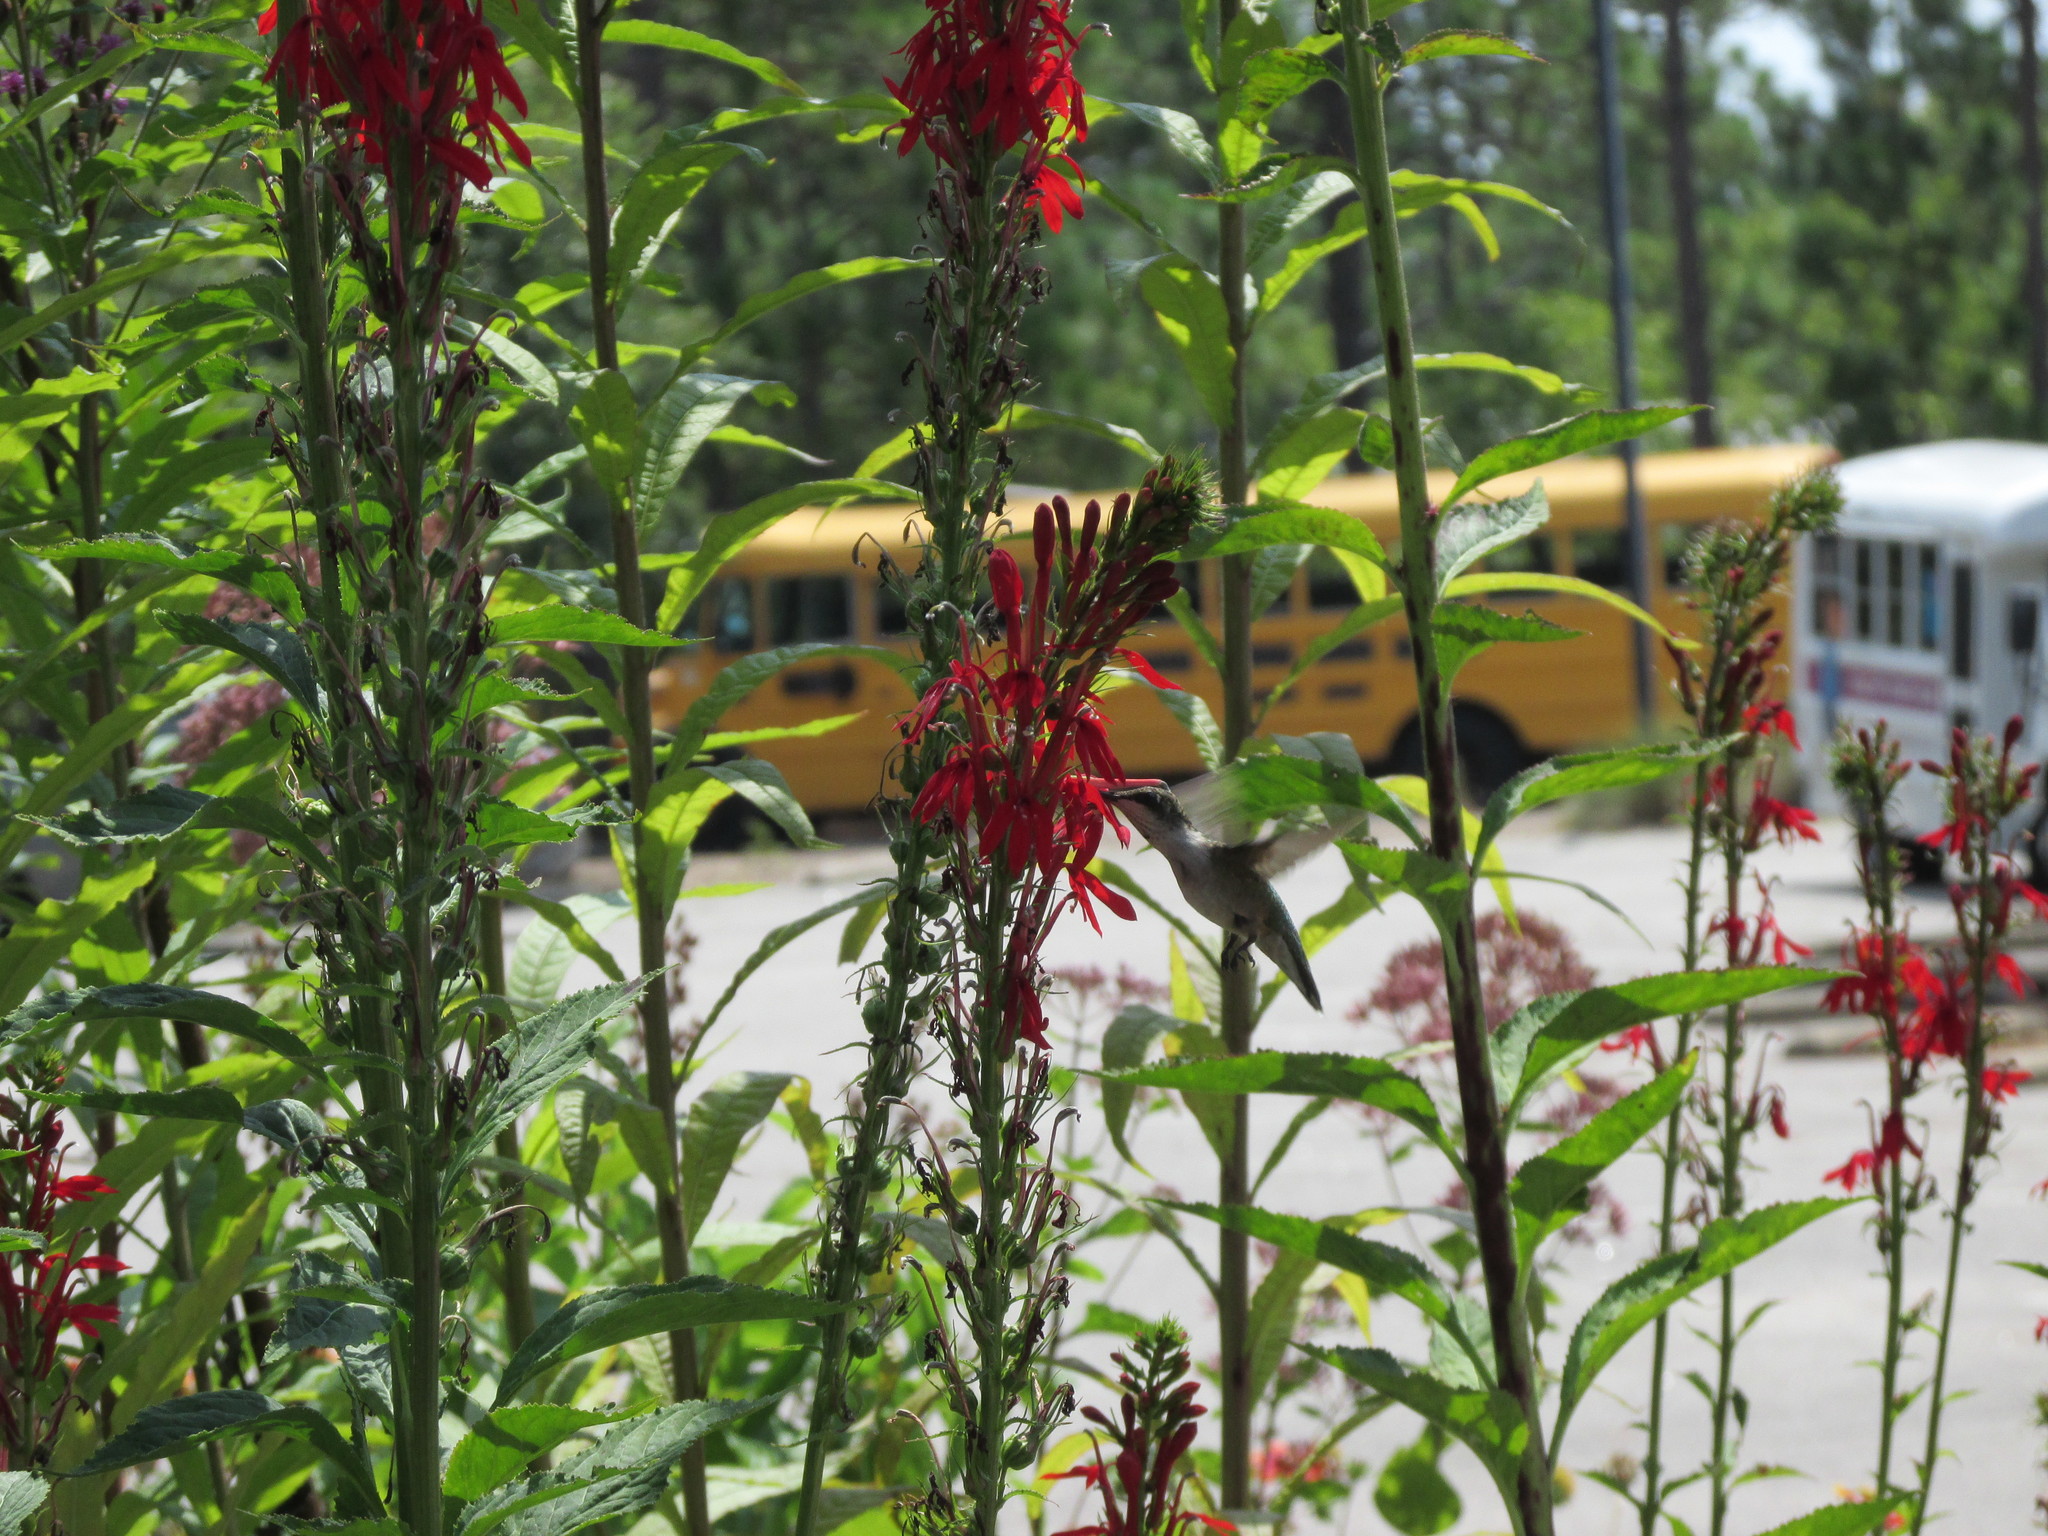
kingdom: Animalia
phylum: Chordata
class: Aves
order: Apodiformes
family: Trochilidae
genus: Archilochus
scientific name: Archilochus colubris
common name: Ruby-throated hummingbird
